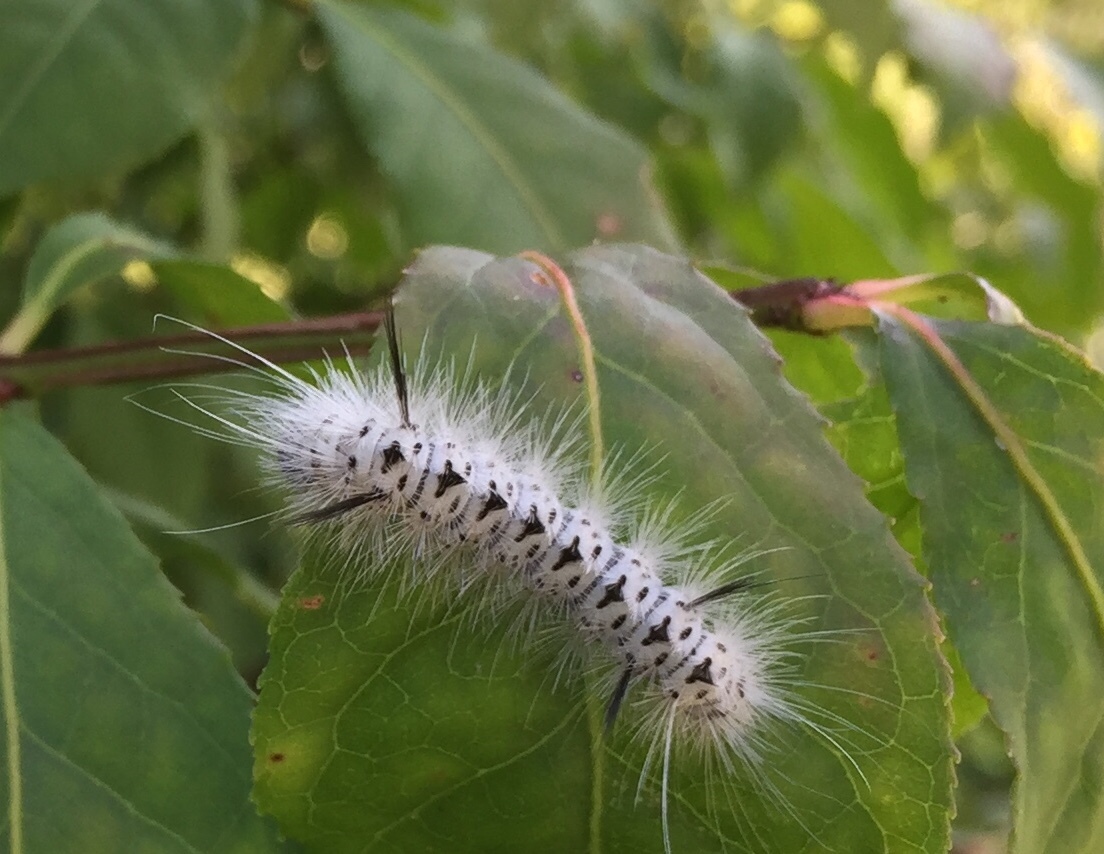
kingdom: Animalia
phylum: Arthropoda
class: Insecta
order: Lepidoptera
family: Erebidae
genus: Lophocampa
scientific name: Lophocampa caryae
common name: Hickory tussock moth
